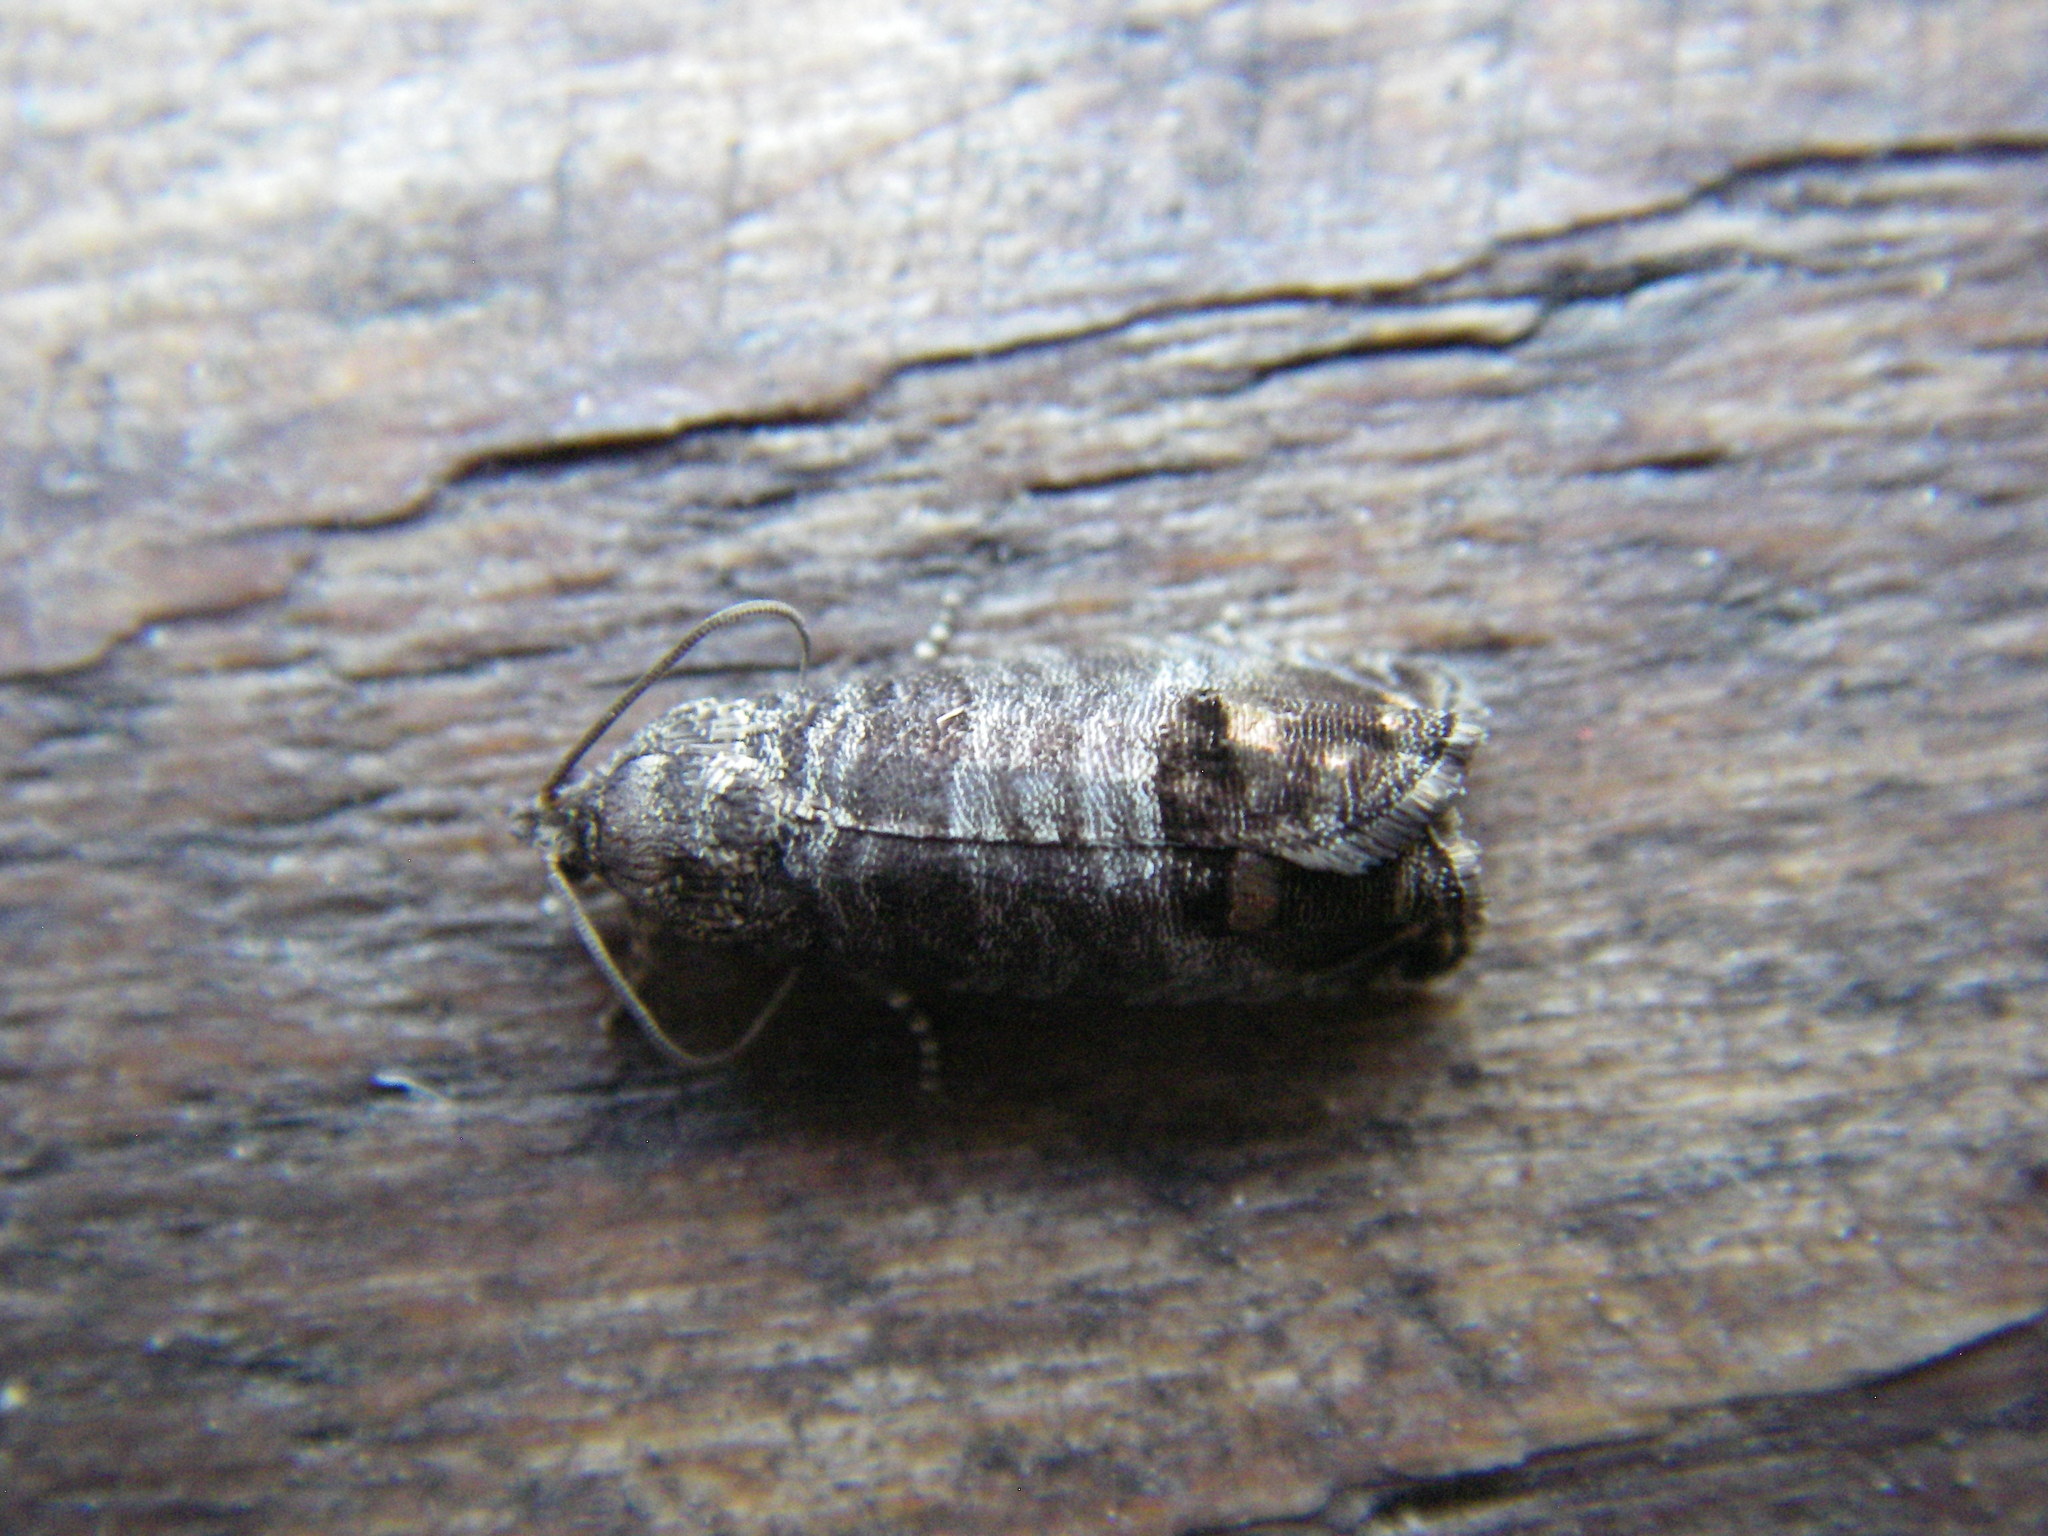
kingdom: Animalia
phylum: Arthropoda
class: Insecta
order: Lepidoptera
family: Tortricidae
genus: Cydia
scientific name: Cydia pomonella
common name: Codling moth
